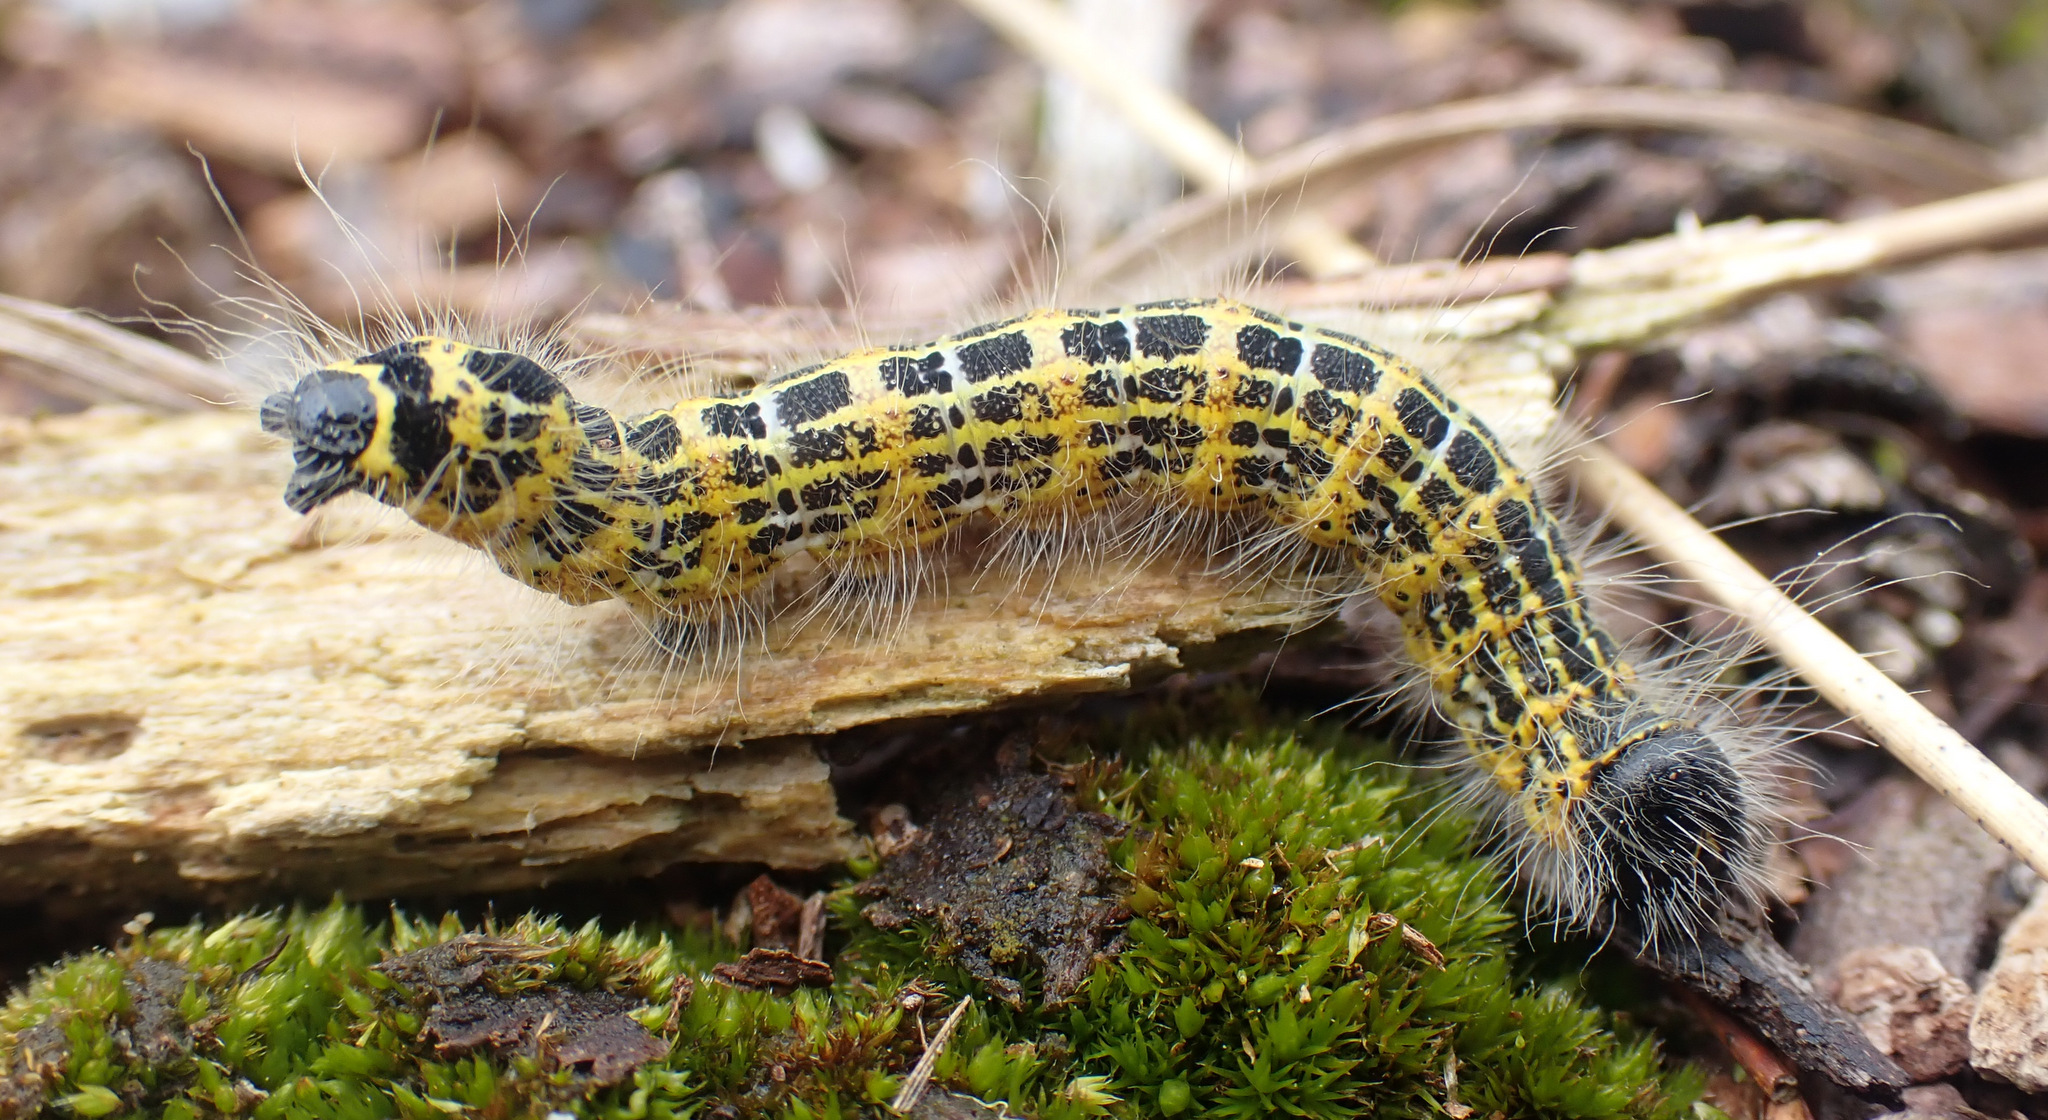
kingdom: Animalia
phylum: Arthropoda
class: Insecta
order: Lepidoptera
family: Notodontidae
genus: Phalera
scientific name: Phalera bucephala
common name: Buff-tip
